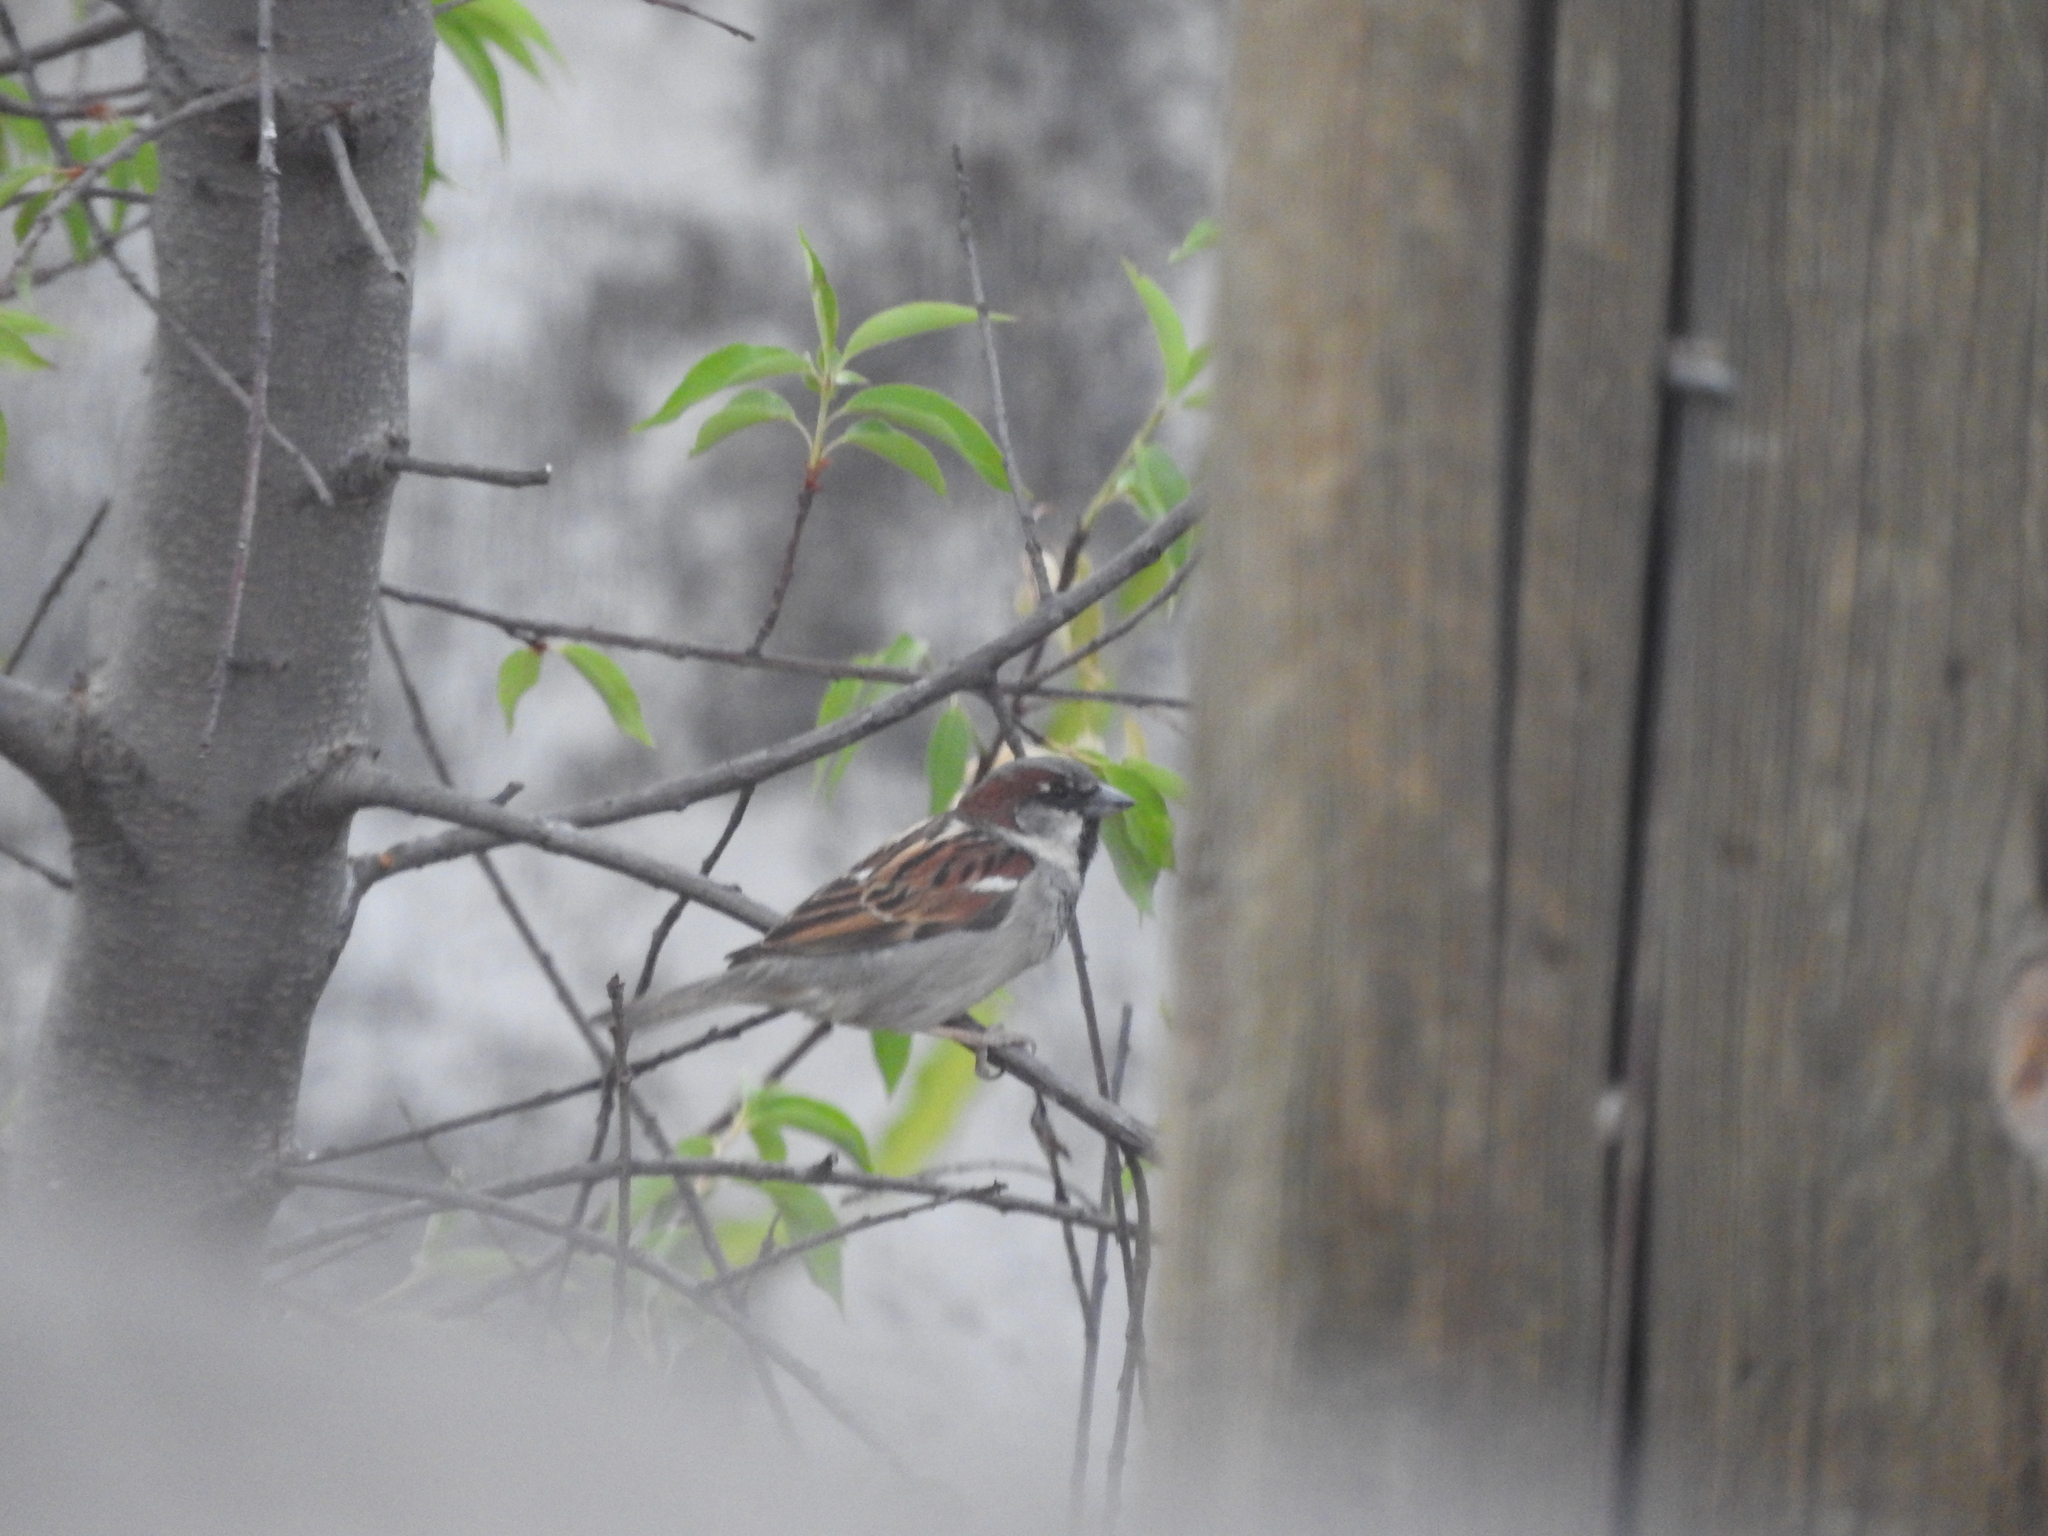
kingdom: Animalia
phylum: Chordata
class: Aves
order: Passeriformes
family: Passeridae
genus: Passer
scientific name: Passer domesticus
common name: House sparrow
